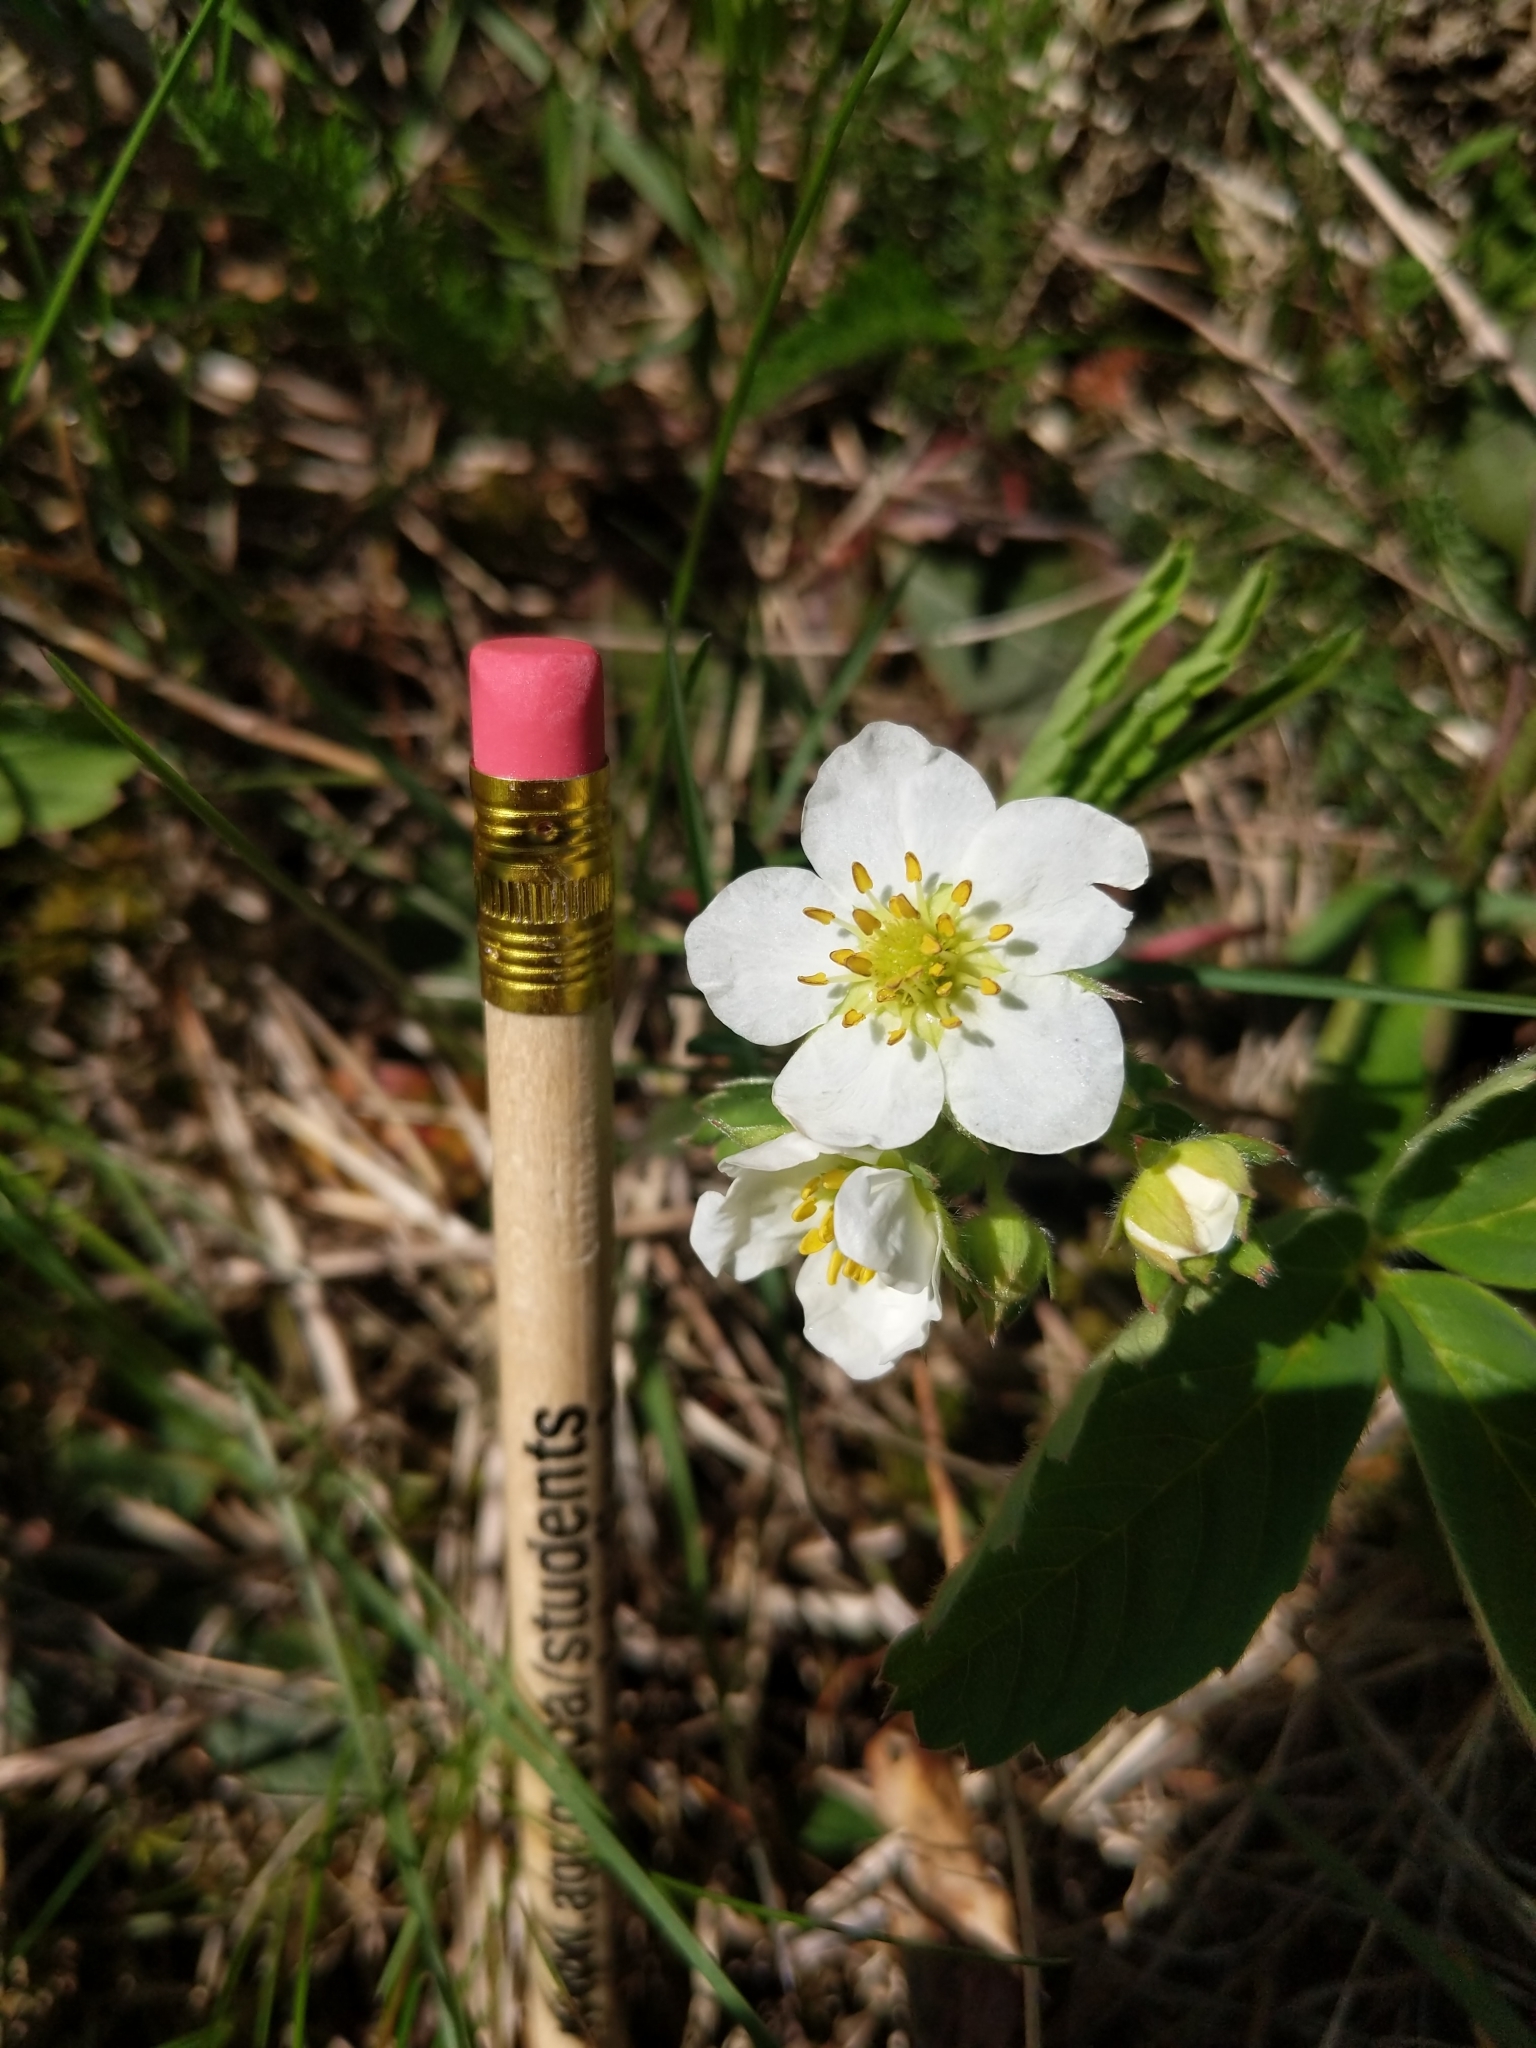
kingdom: Plantae
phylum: Tracheophyta
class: Magnoliopsida
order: Rosales
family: Rosaceae
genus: Fragaria
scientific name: Fragaria virginiana
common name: Thickleaved wild strawberry
